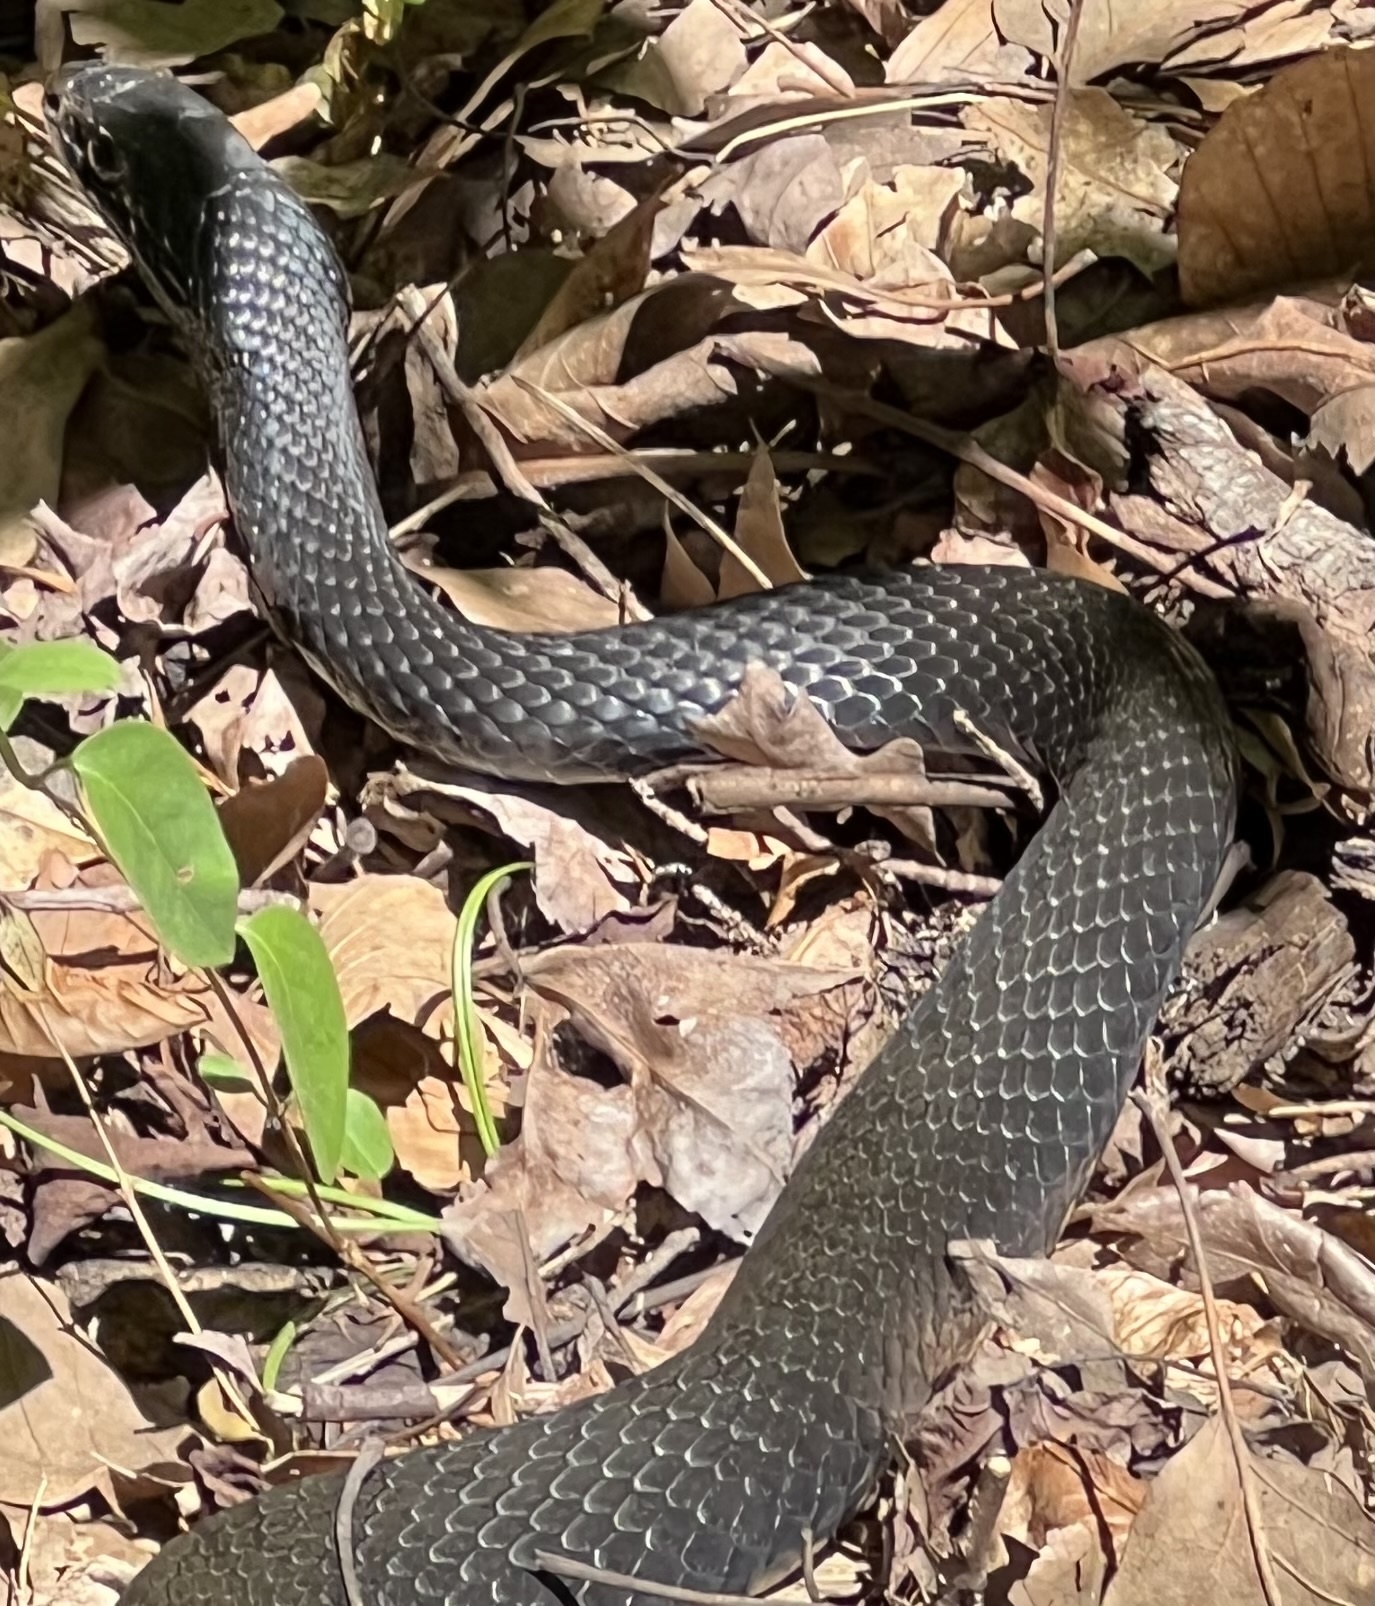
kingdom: Animalia
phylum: Chordata
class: Squamata
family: Colubridae
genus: Coluber
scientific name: Coluber constrictor
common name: Eastern racer
